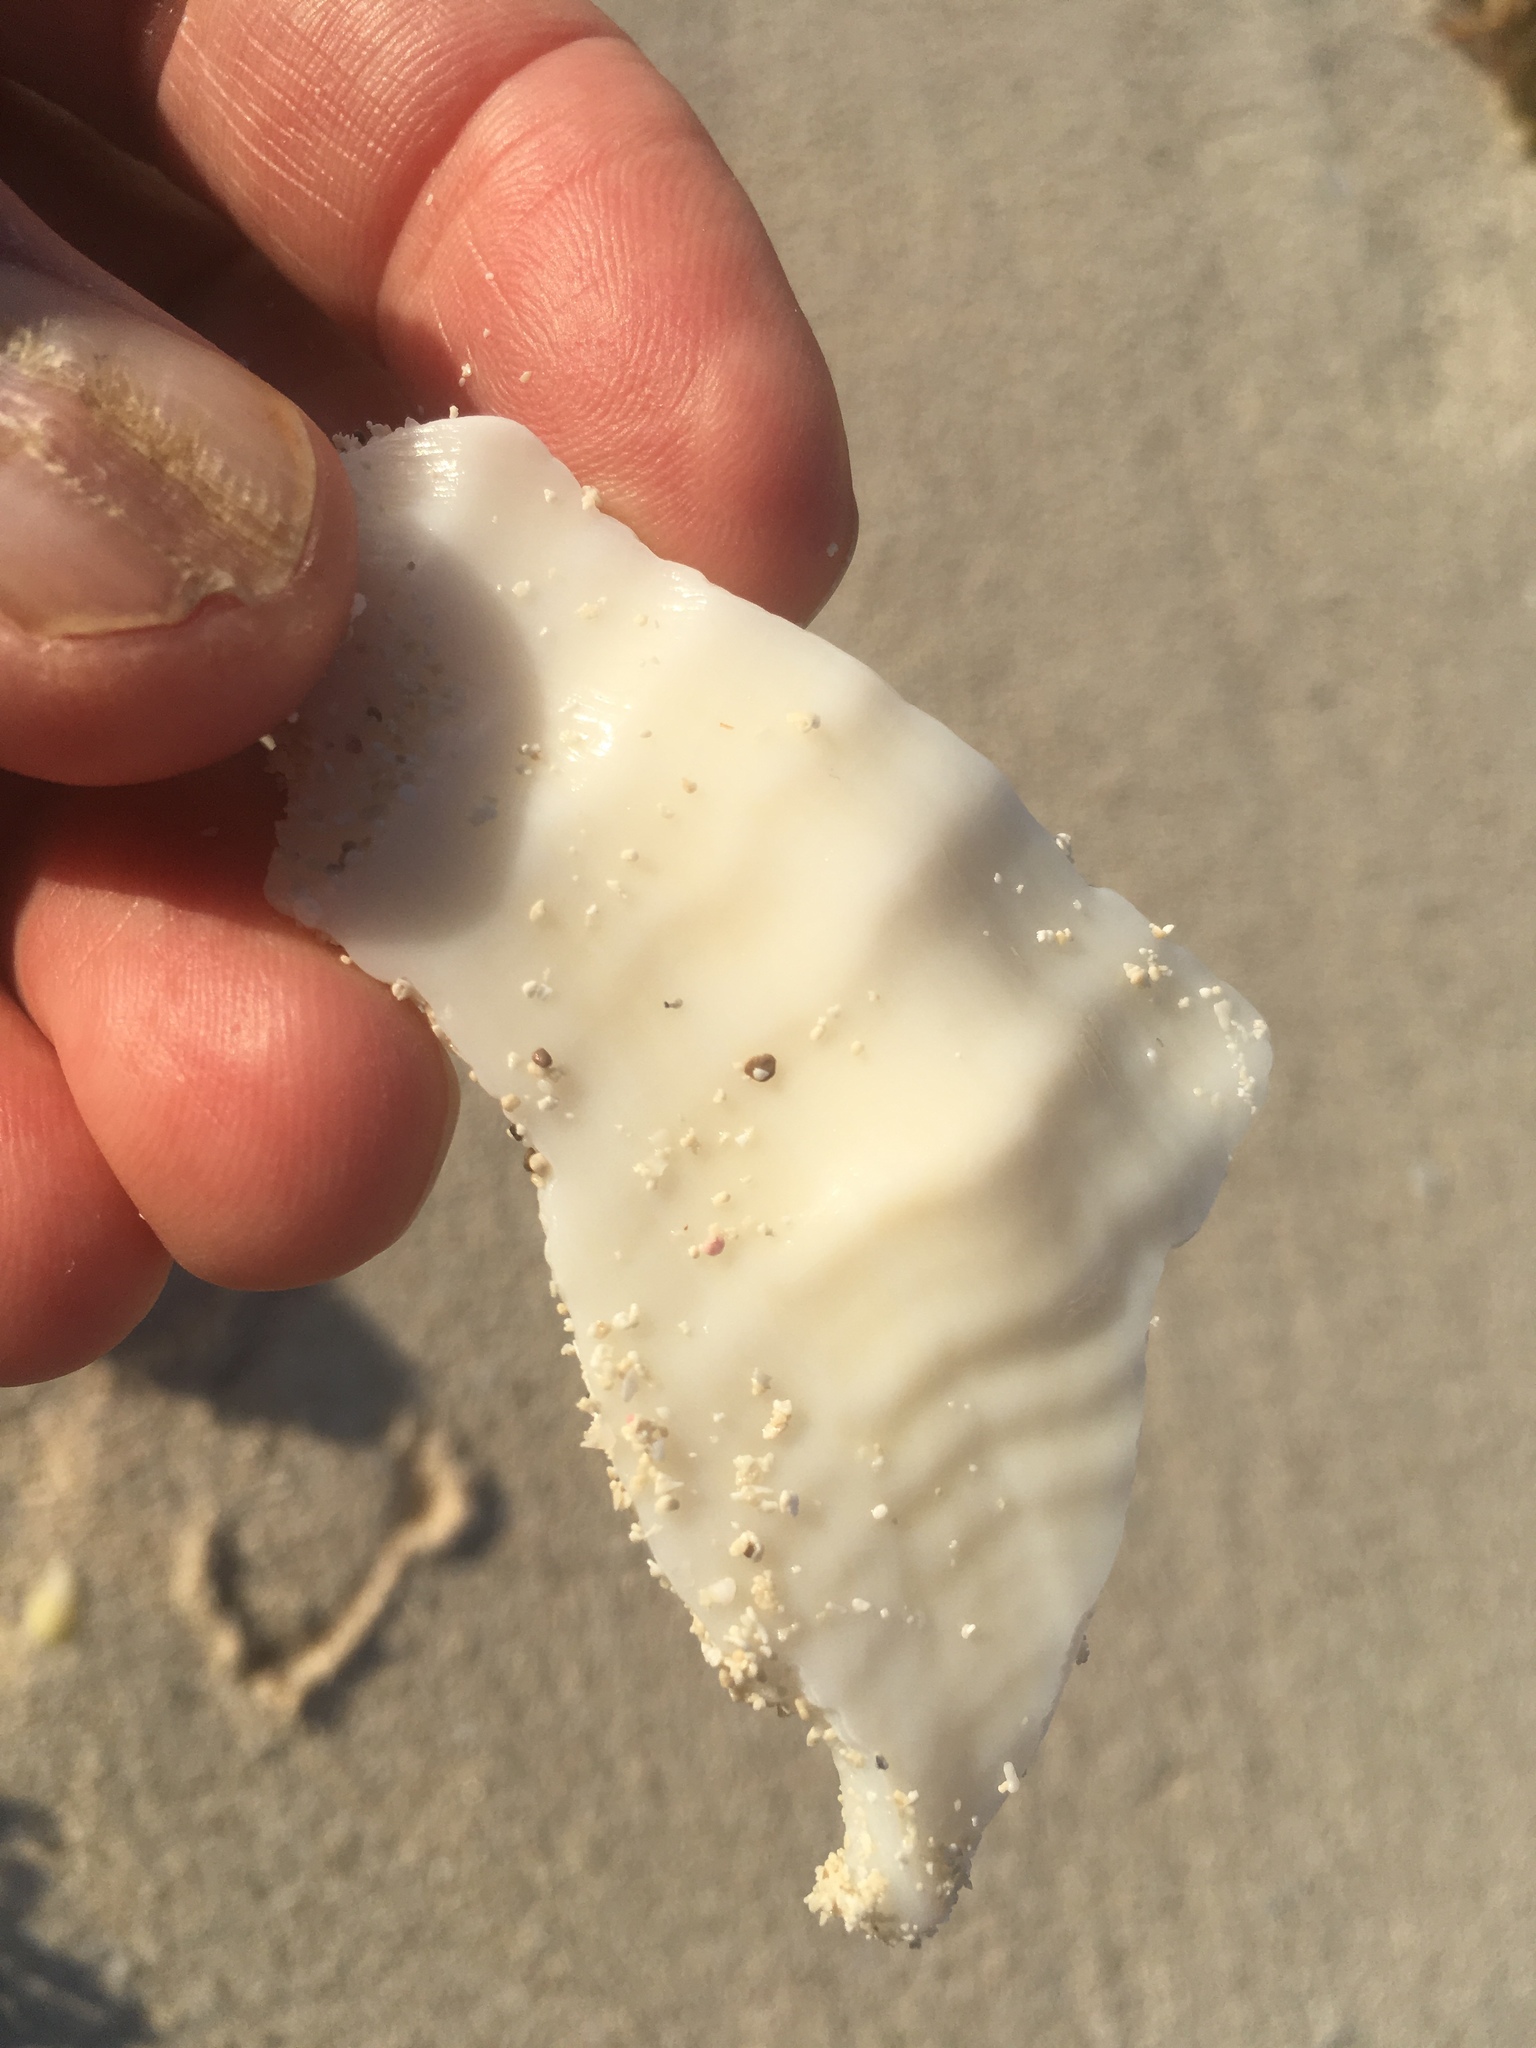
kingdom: Animalia
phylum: Mollusca
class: Gastropoda
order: Neogastropoda
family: Fasciolariidae
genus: Triplofusus
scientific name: Triplofusus giganteus
